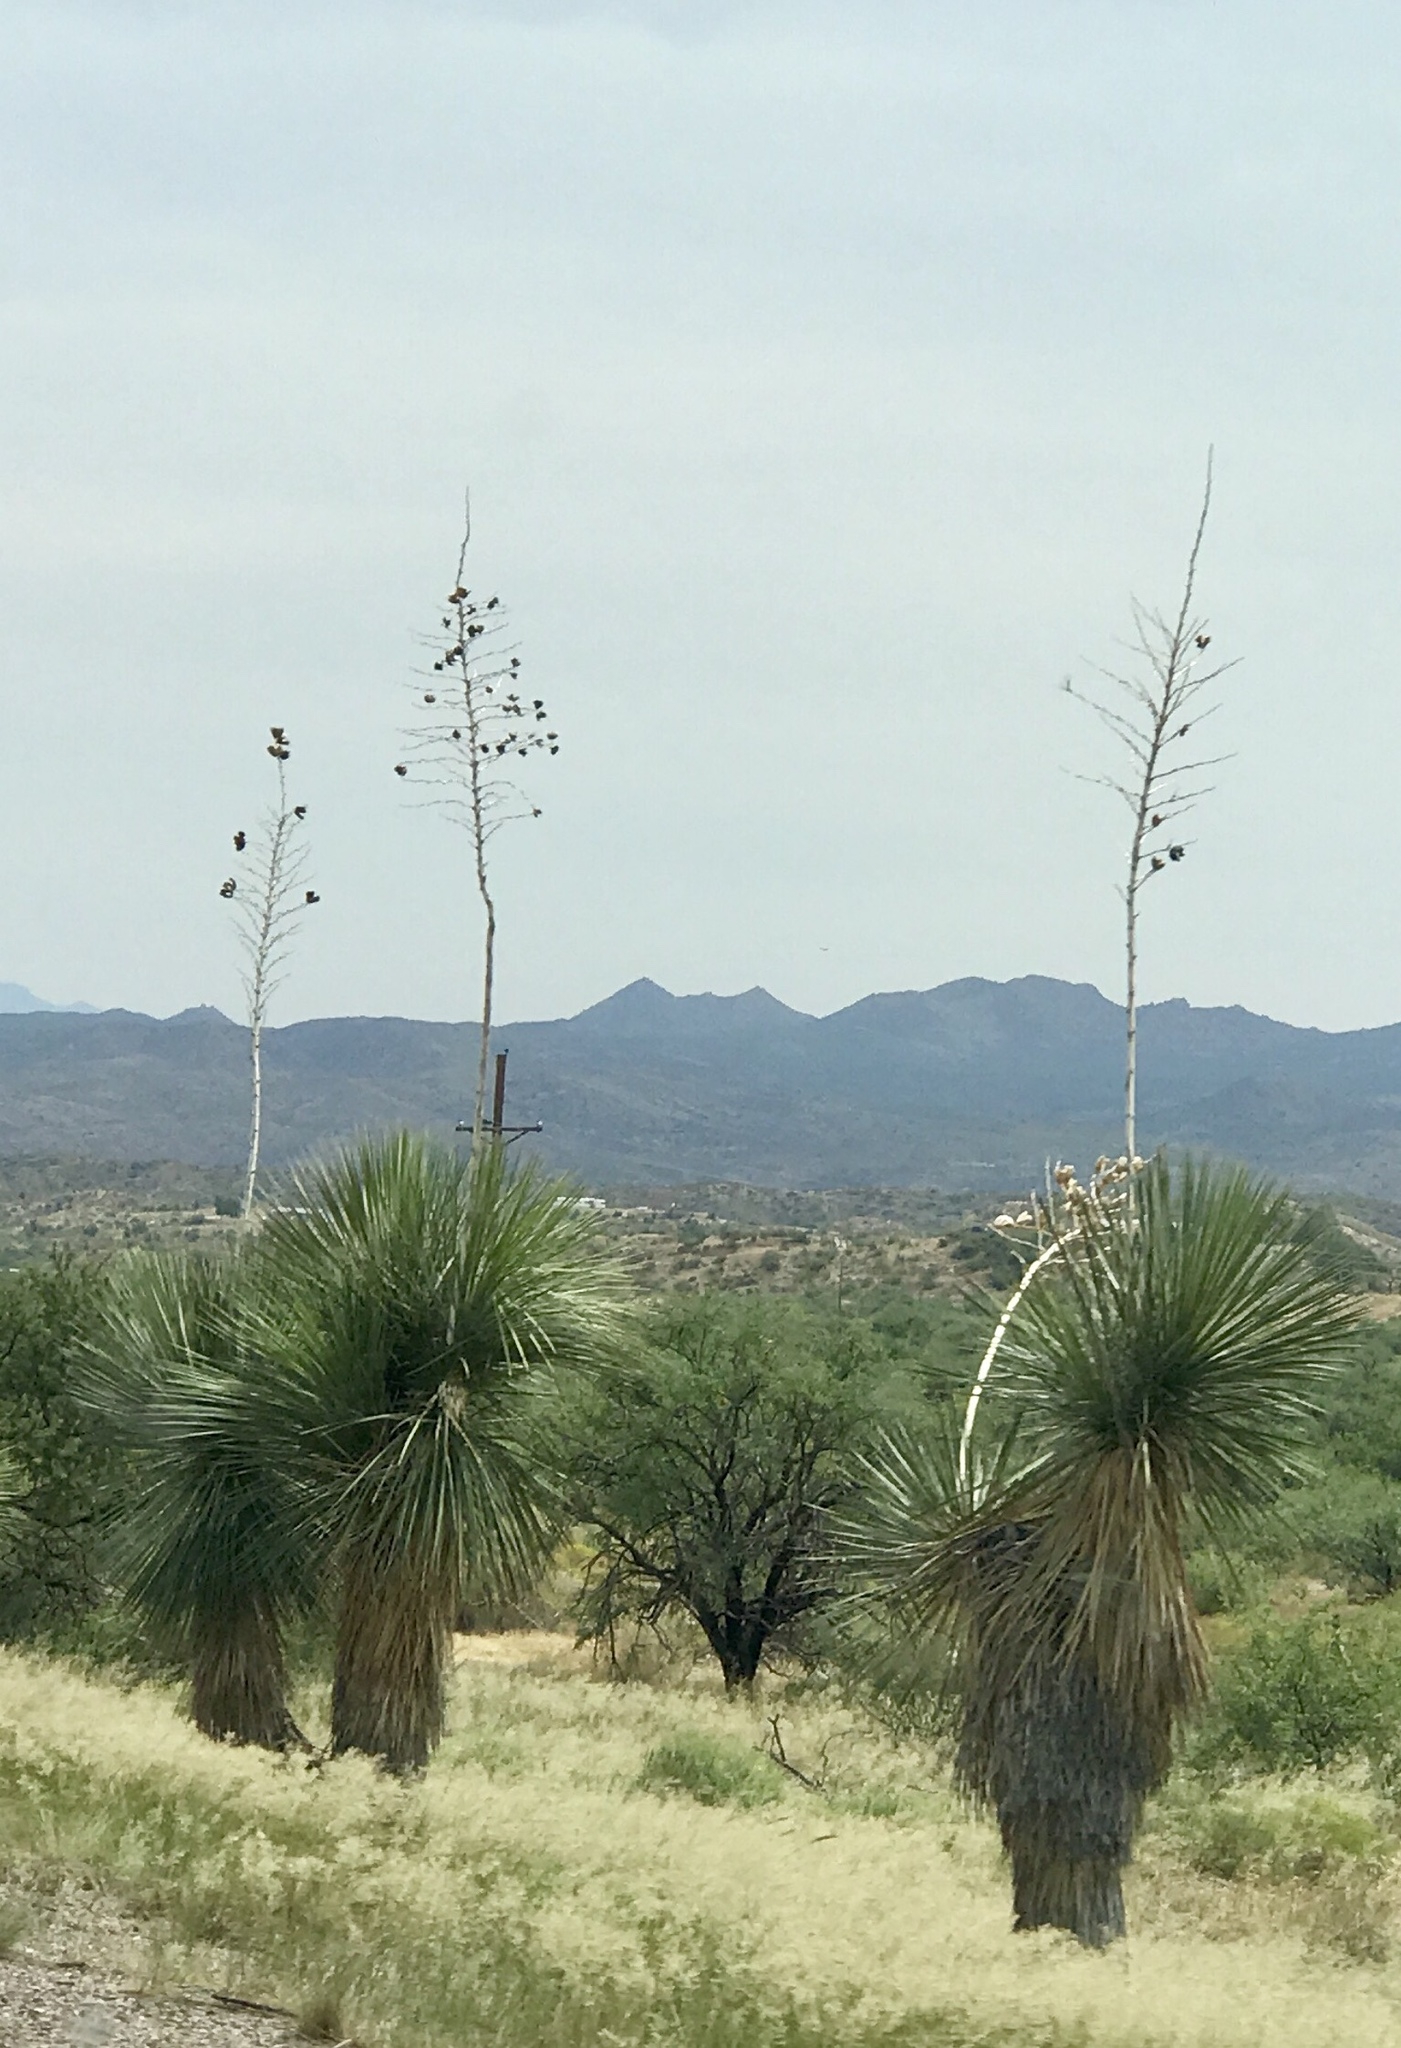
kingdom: Plantae
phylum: Tracheophyta
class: Liliopsida
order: Asparagales
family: Asparagaceae
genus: Yucca
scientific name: Yucca elata
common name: Palmella
